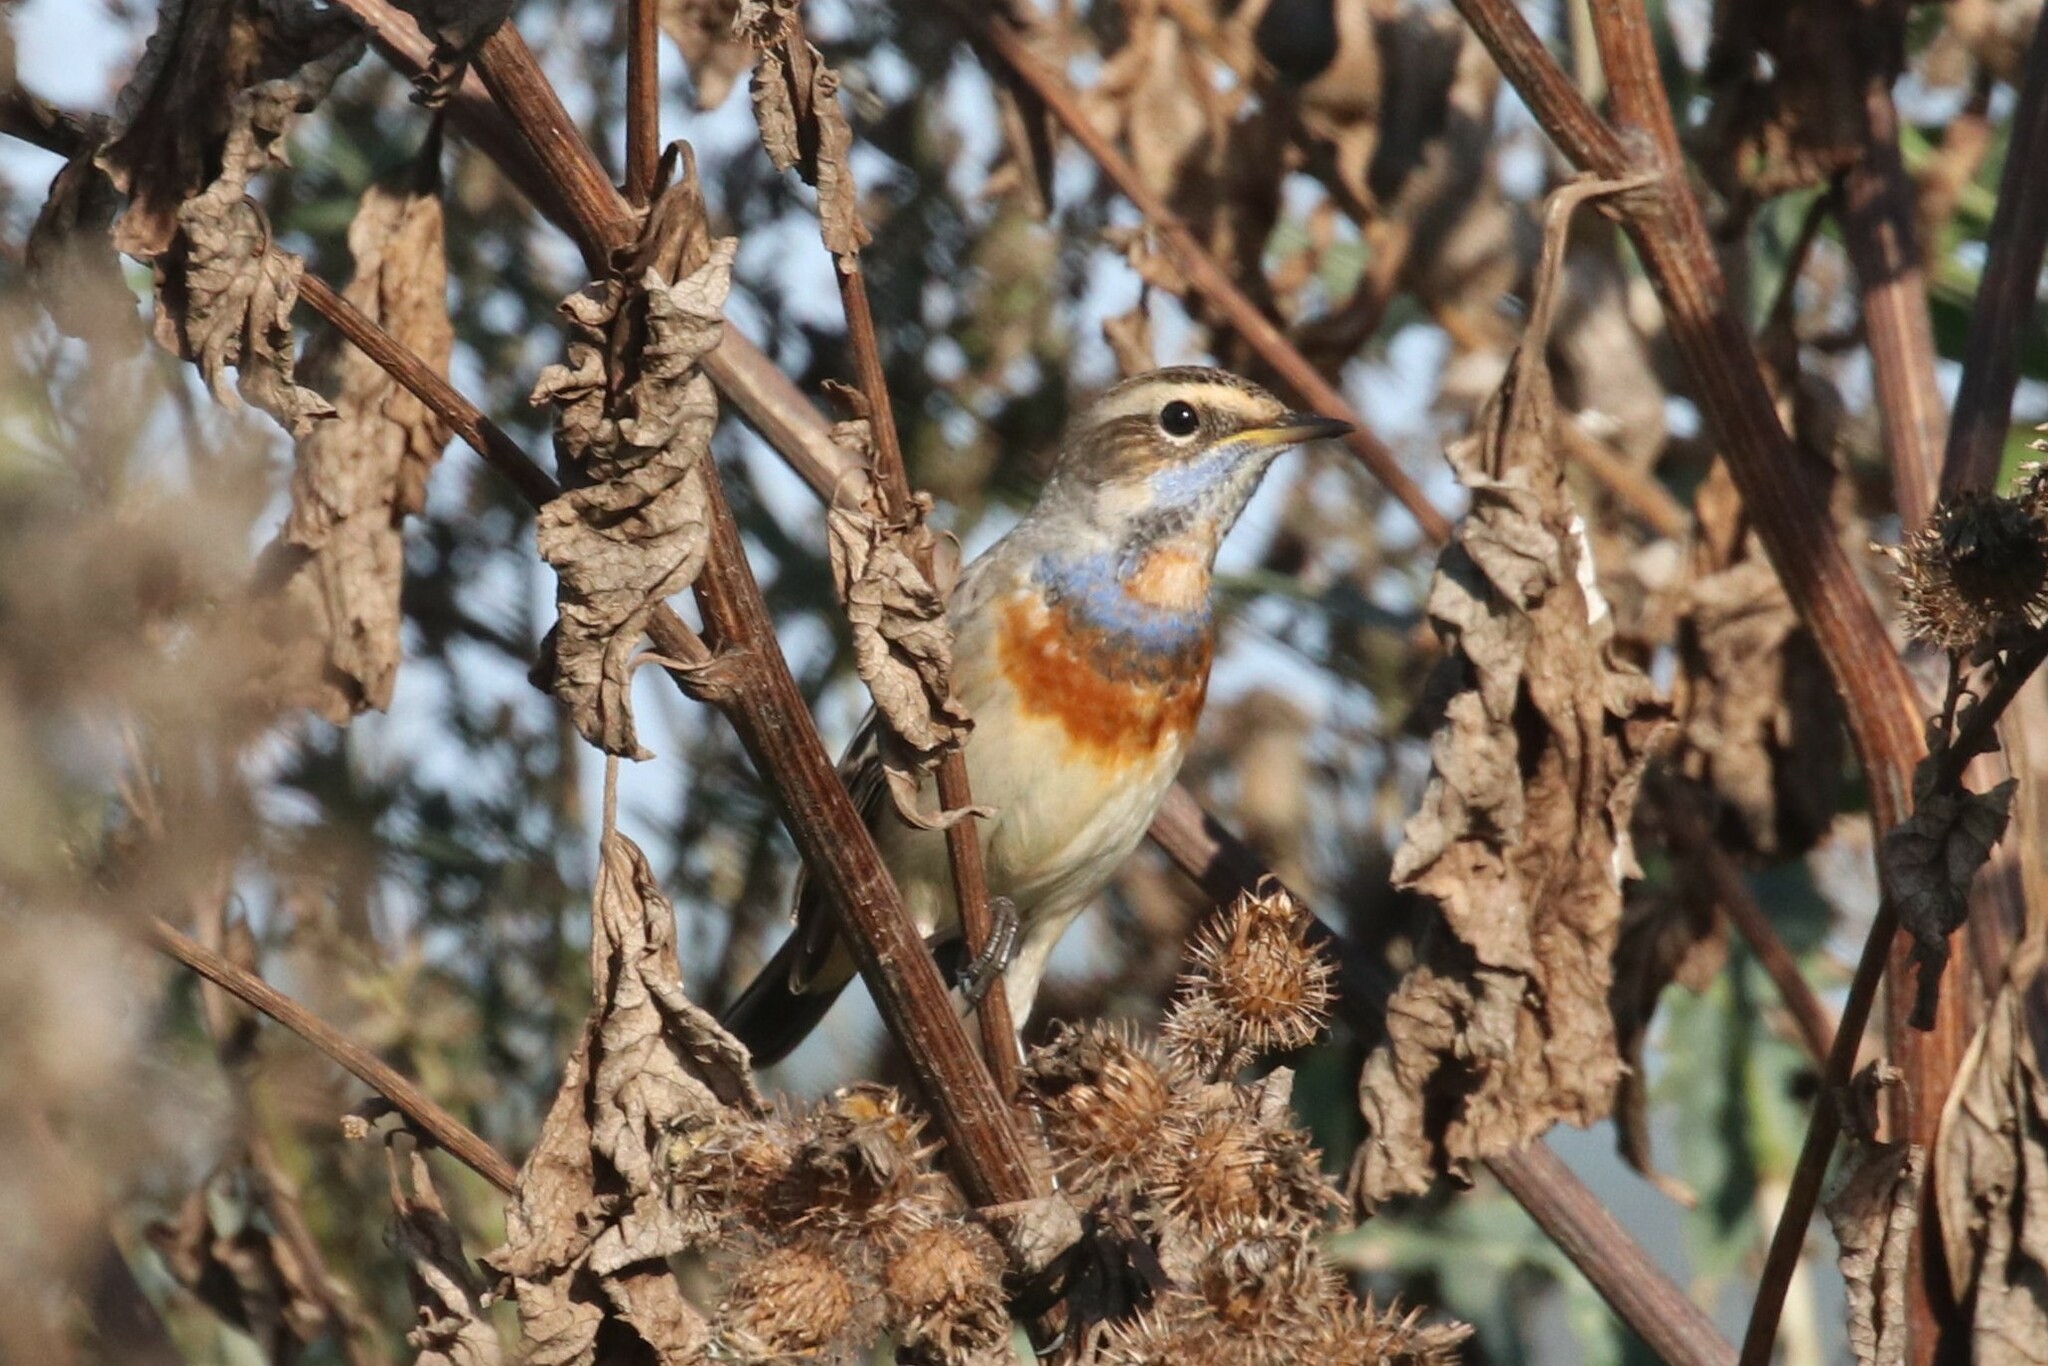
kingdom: Animalia
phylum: Chordata
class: Aves
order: Passeriformes
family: Muscicapidae
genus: Luscinia
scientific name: Luscinia svecica
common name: Bluethroat
